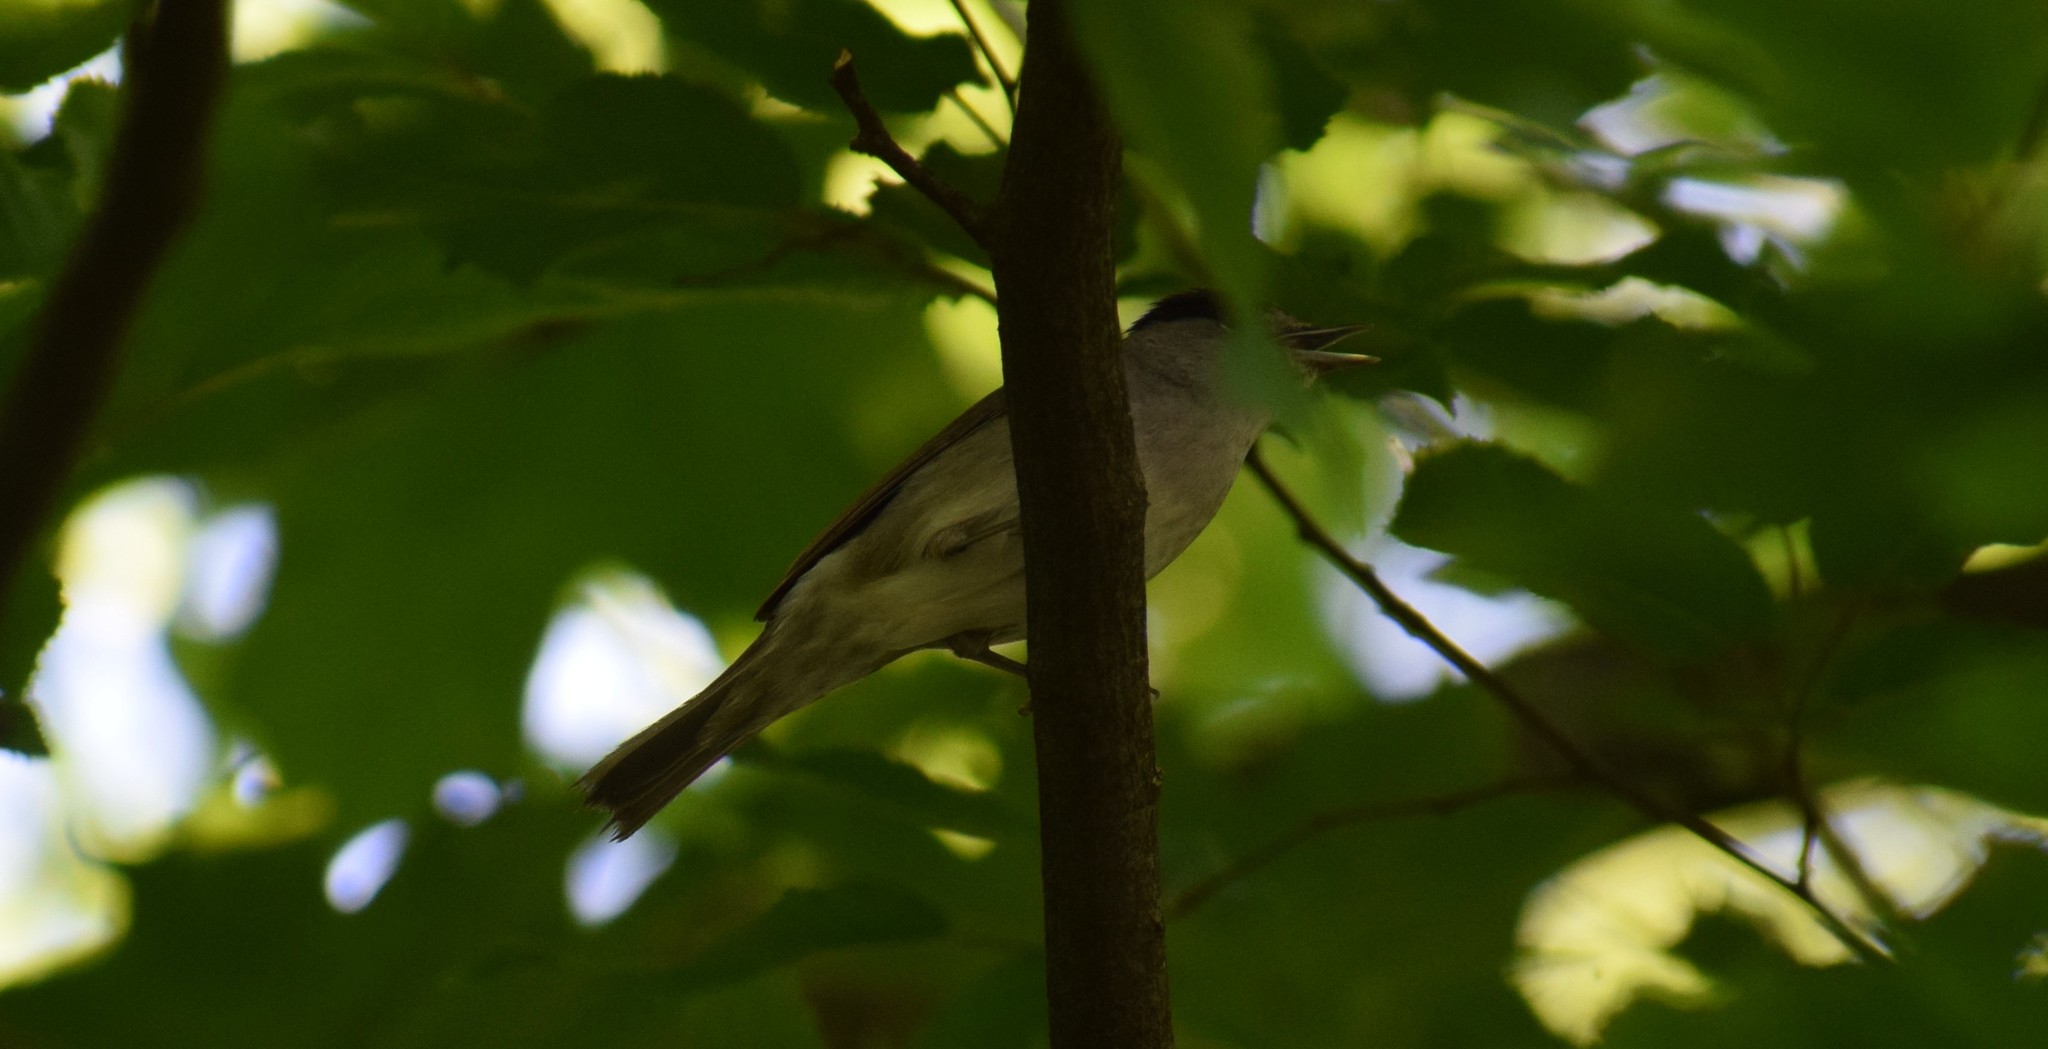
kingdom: Animalia
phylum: Chordata
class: Aves
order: Passeriformes
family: Sylviidae
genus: Sylvia
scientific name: Sylvia atricapilla
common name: Eurasian blackcap
